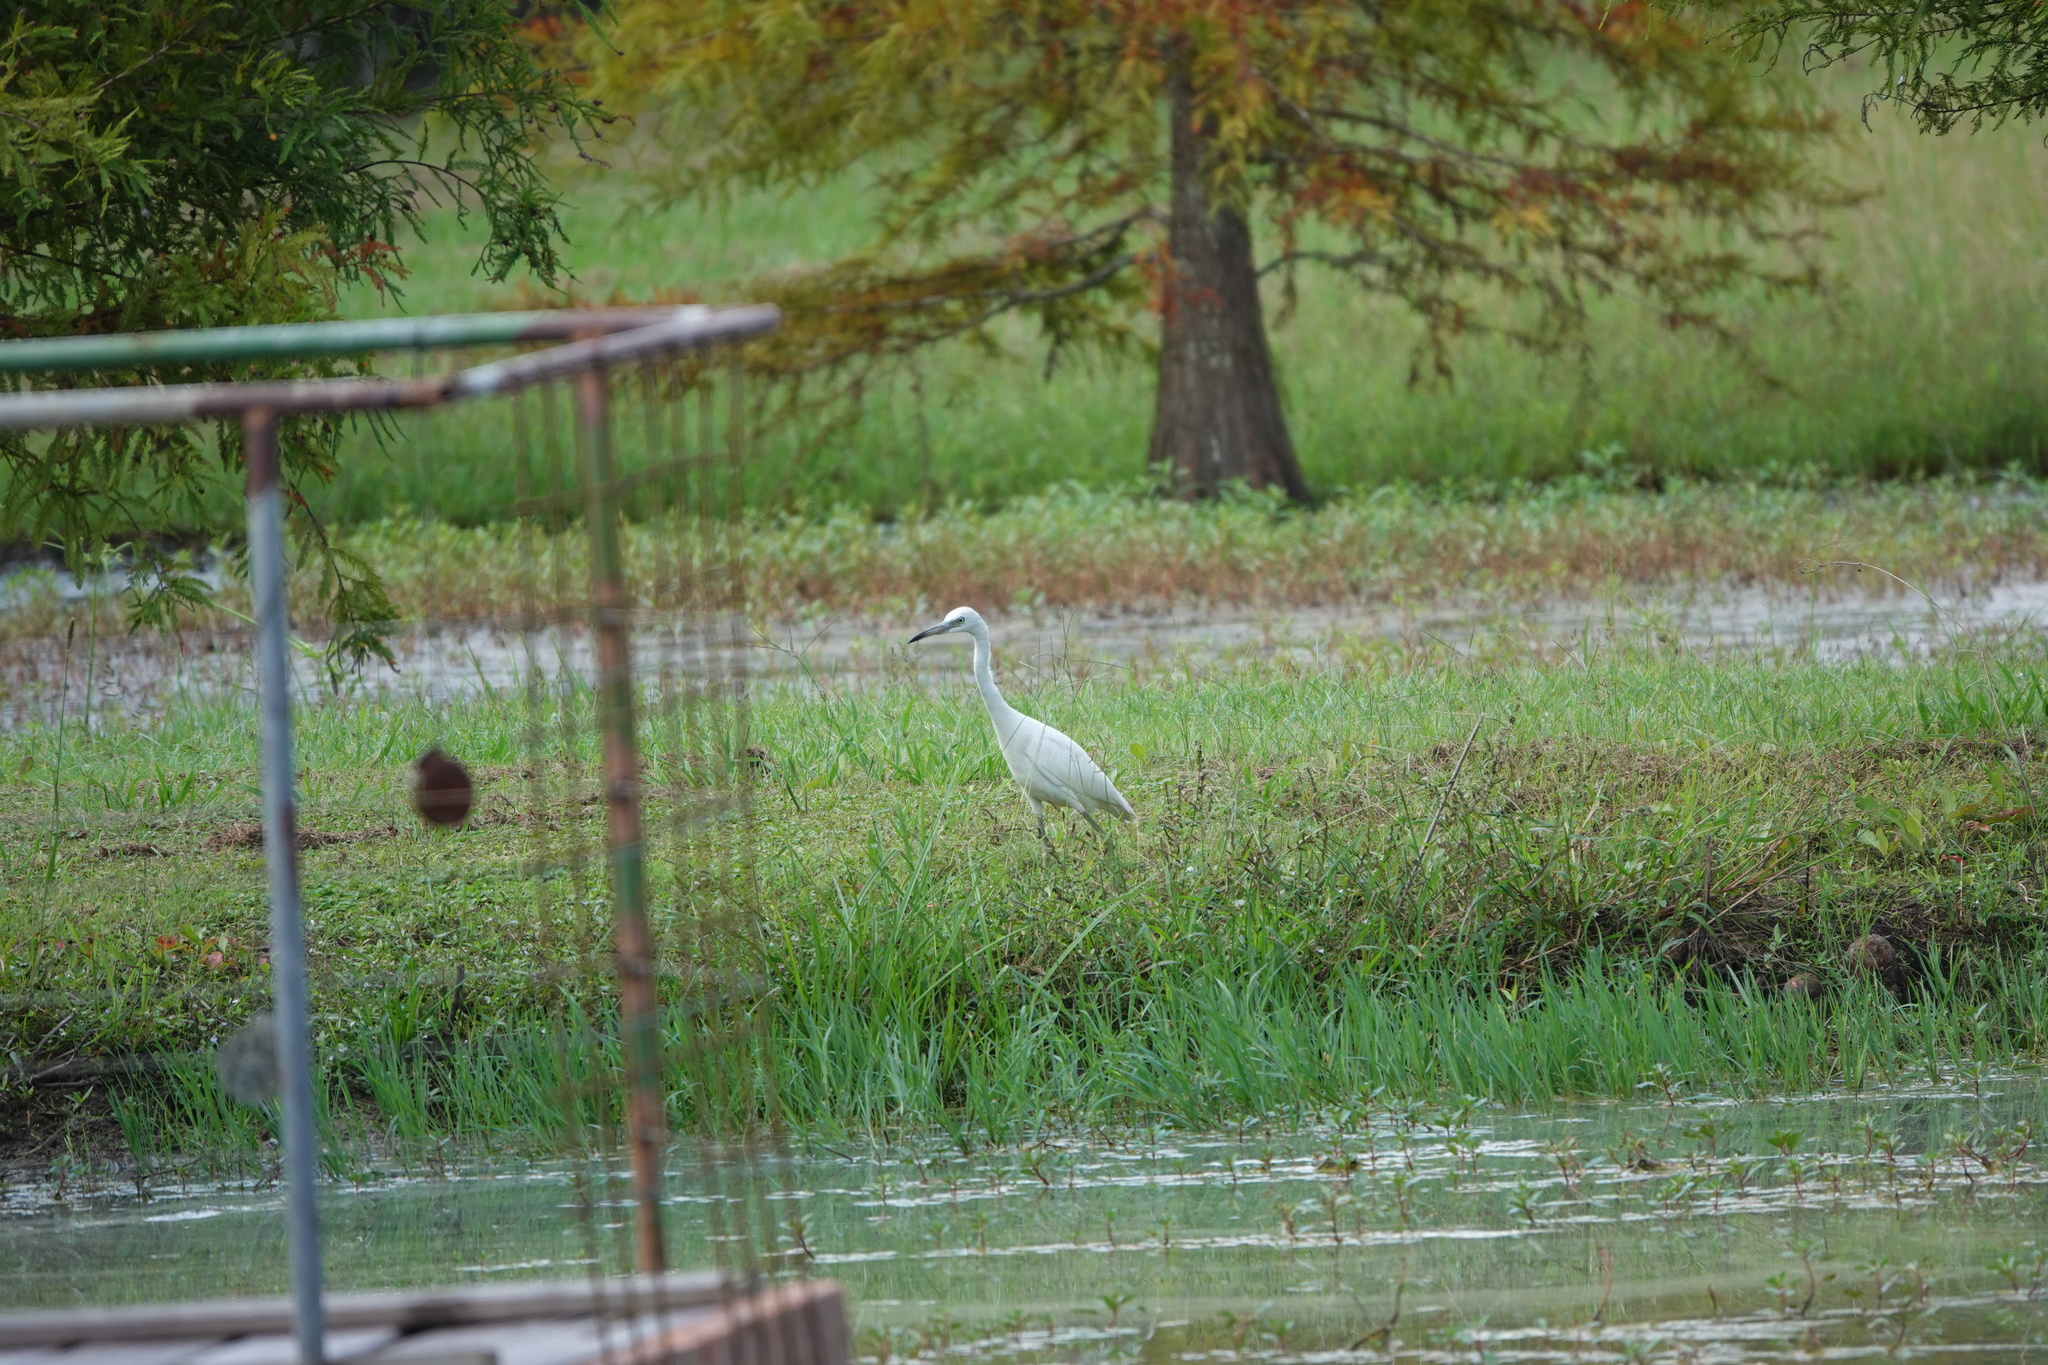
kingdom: Animalia
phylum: Chordata
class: Aves
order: Pelecaniformes
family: Ardeidae
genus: Egretta
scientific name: Egretta caerulea
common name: Little blue heron
